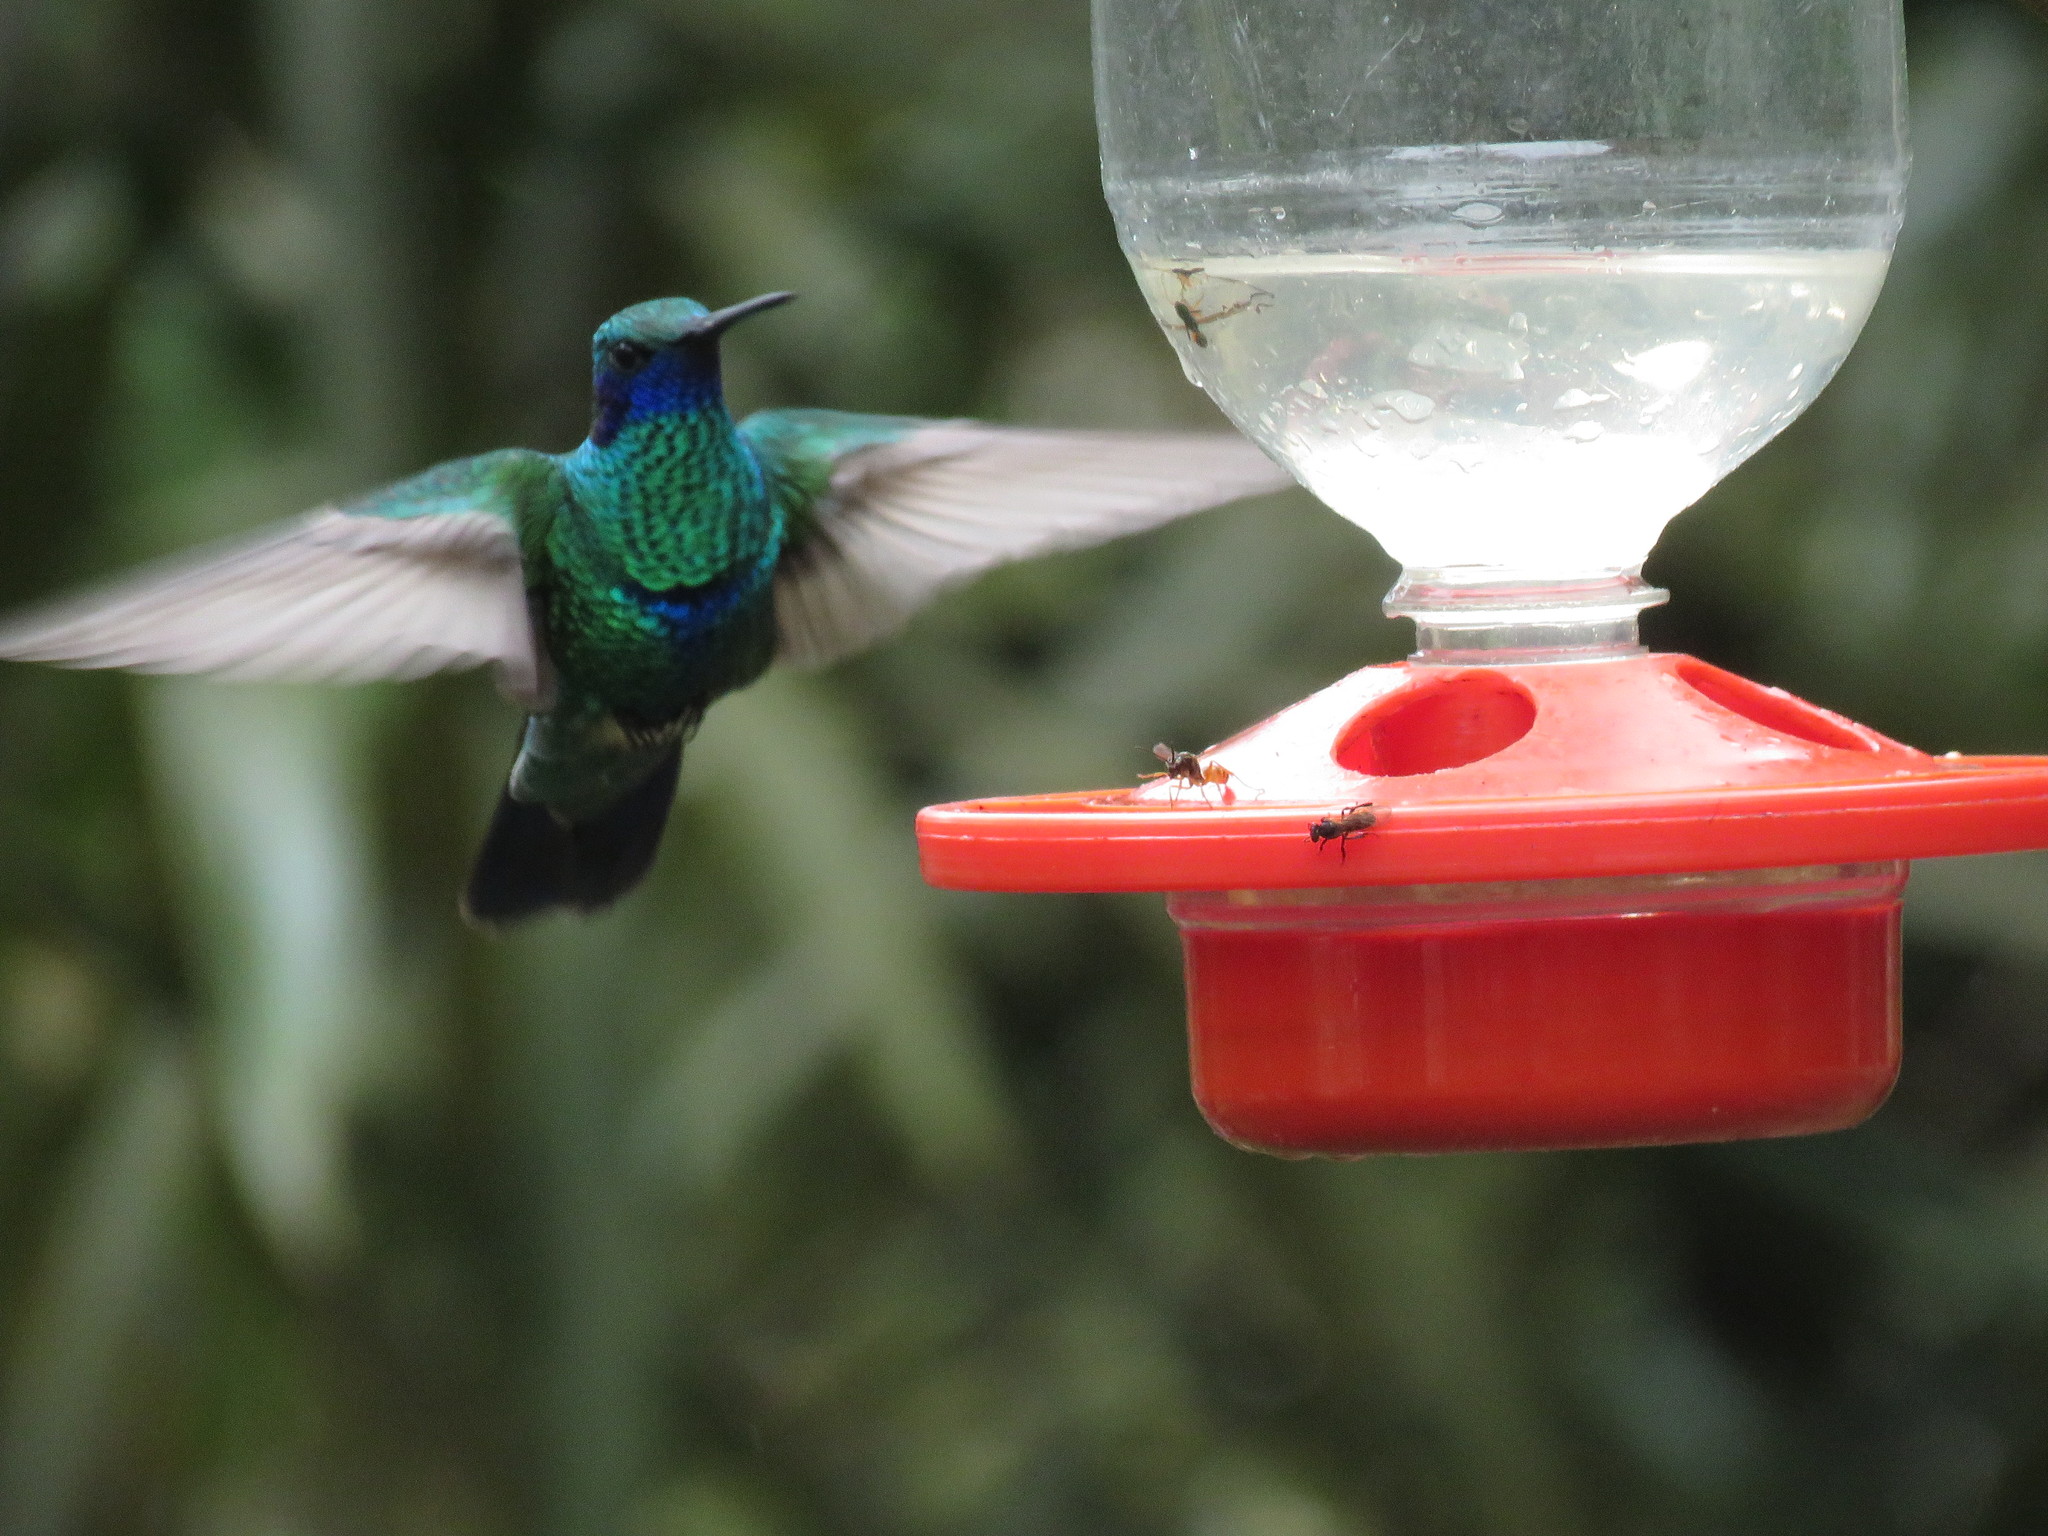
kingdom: Animalia
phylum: Chordata
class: Aves
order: Apodiformes
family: Trochilidae
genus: Colibri
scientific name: Colibri coruscans
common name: Sparkling violetear
